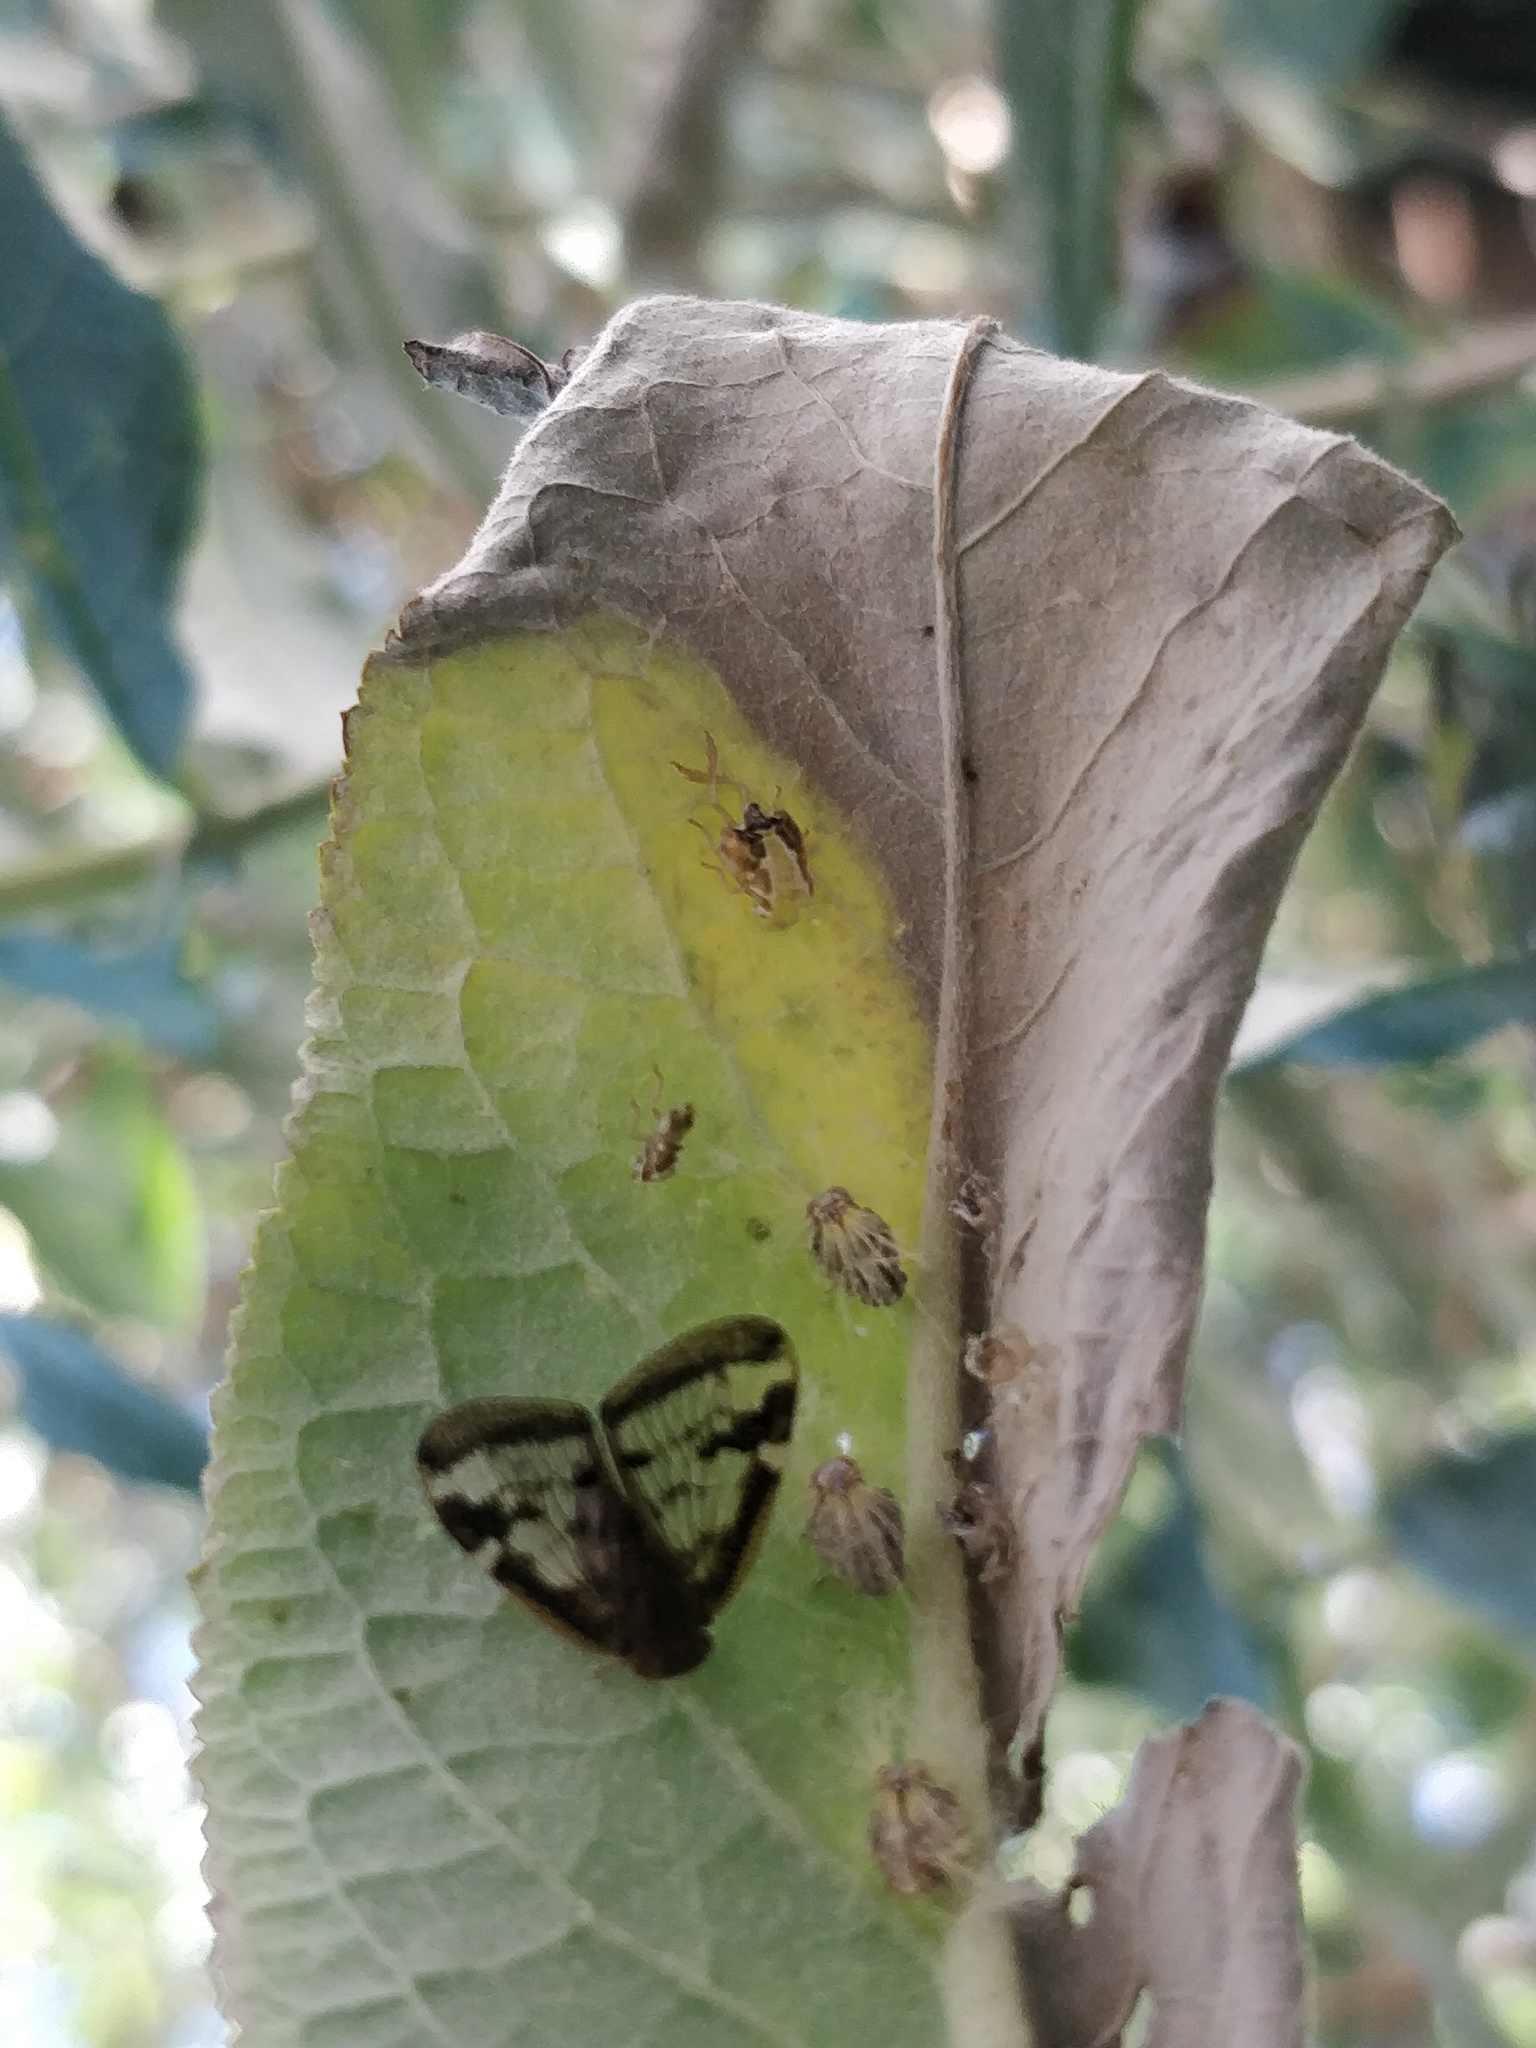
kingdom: Animalia
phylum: Arthropoda
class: Insecta
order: Hemiptera
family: Ricaniidae
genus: Scolypopa
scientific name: Scolypopa australis
